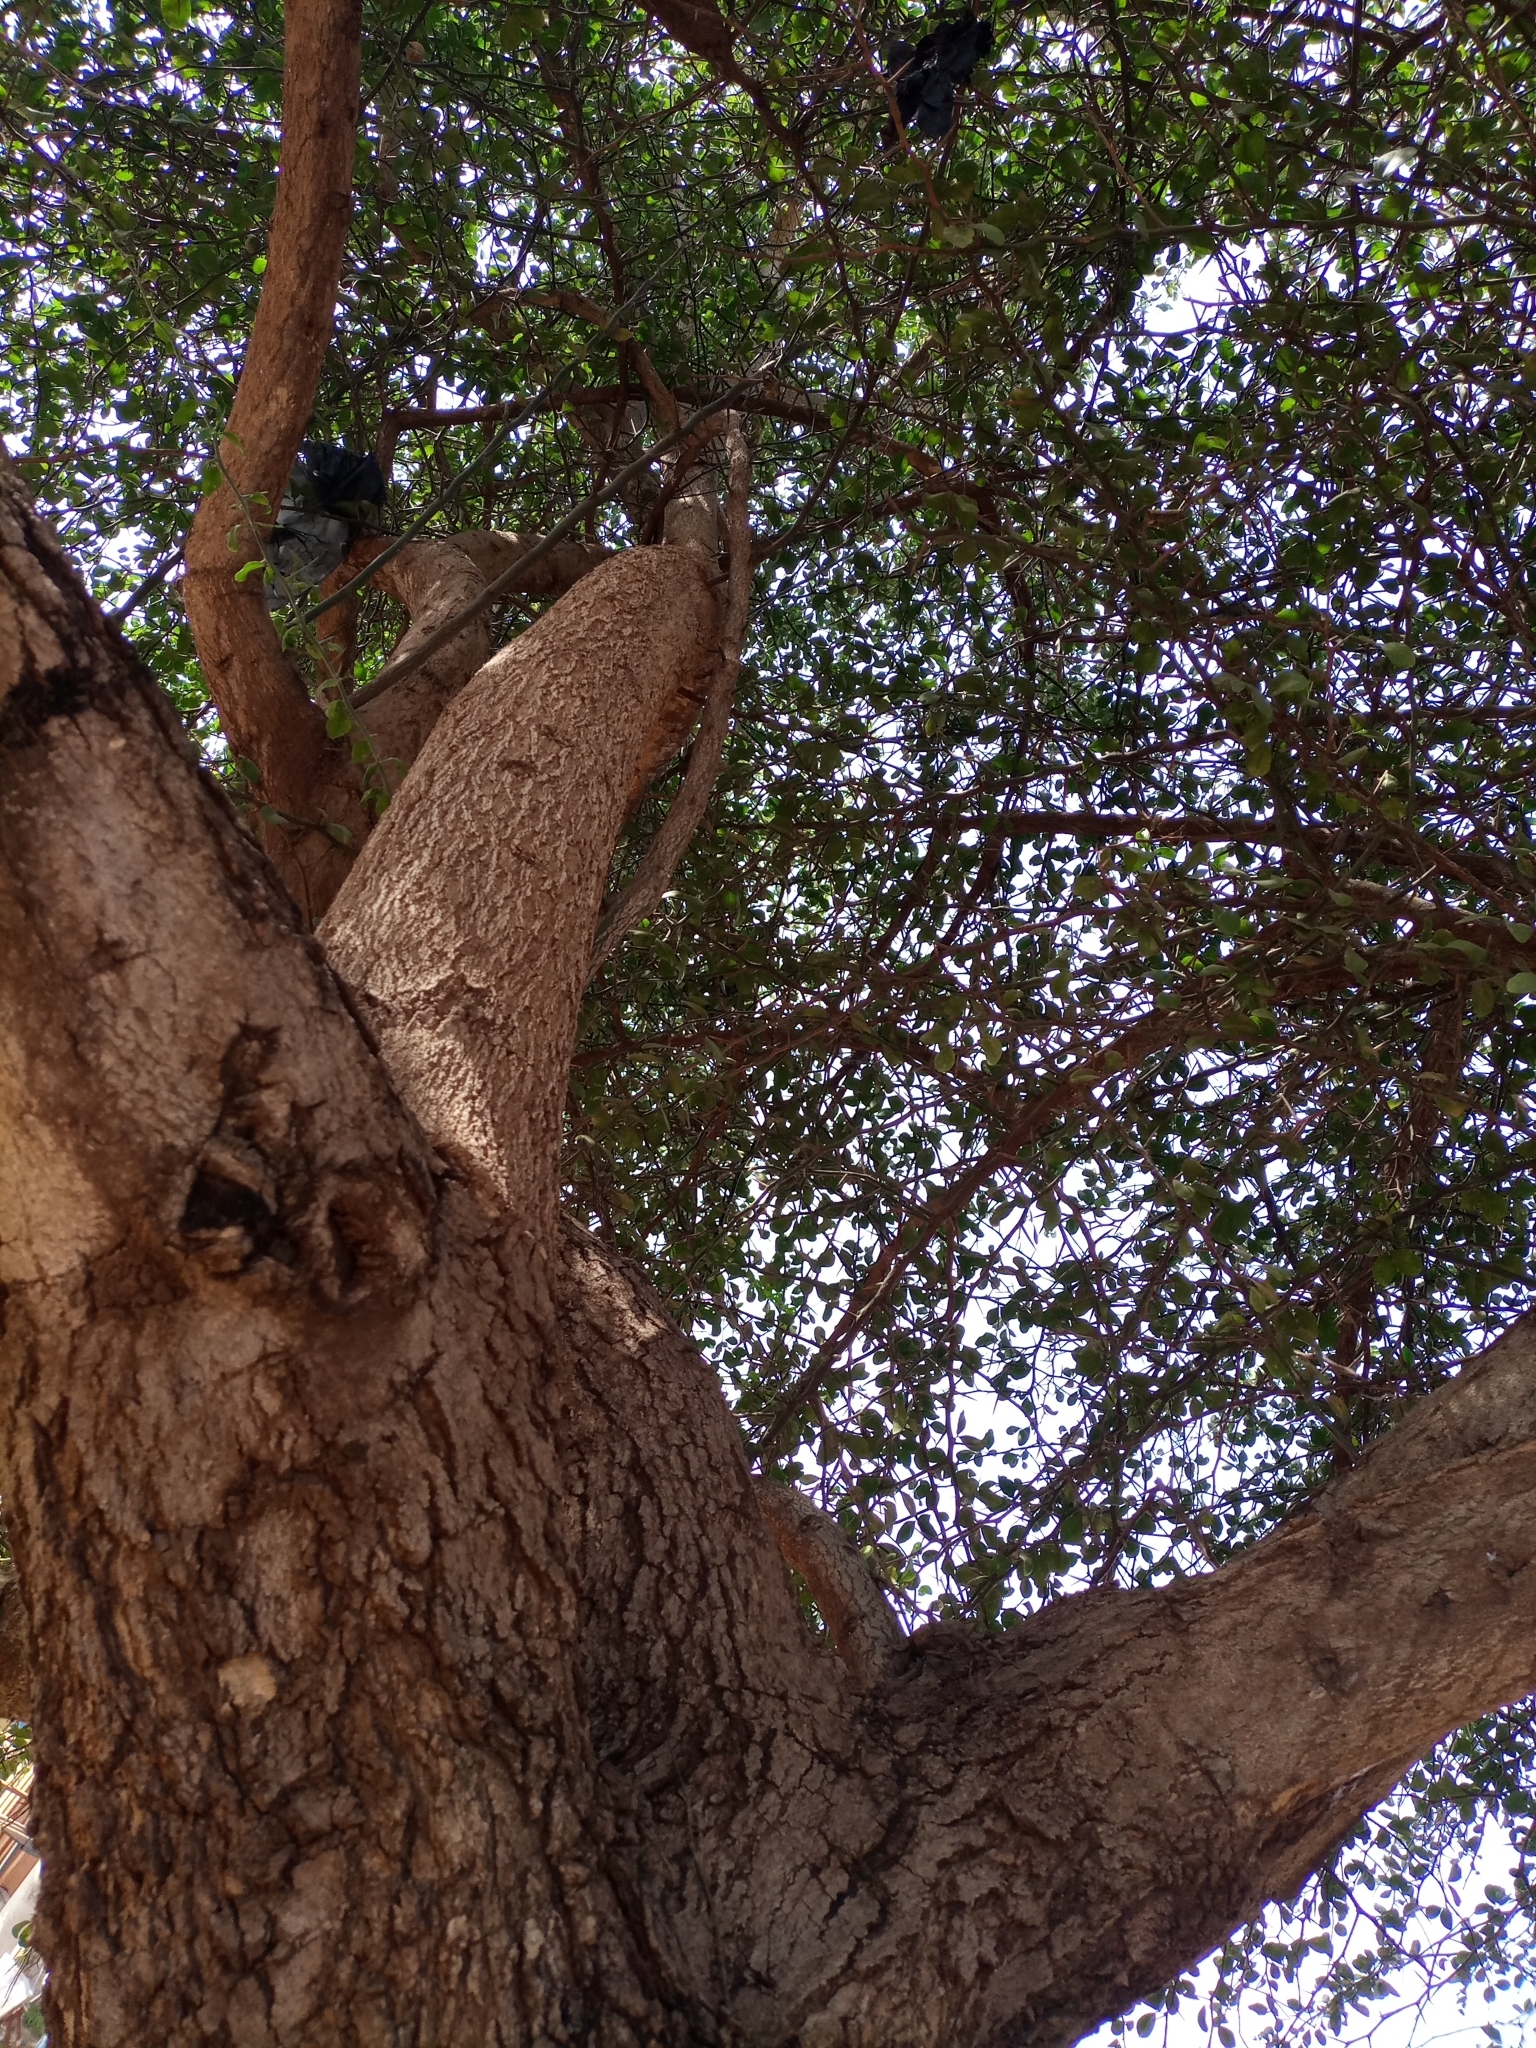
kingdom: Plantae
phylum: Tracheophyta
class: Magnoliopsida
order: Zygophyllales
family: Zygophyllaceae
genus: Balanites
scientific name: Balanites aegyptiaca
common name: Balanites
